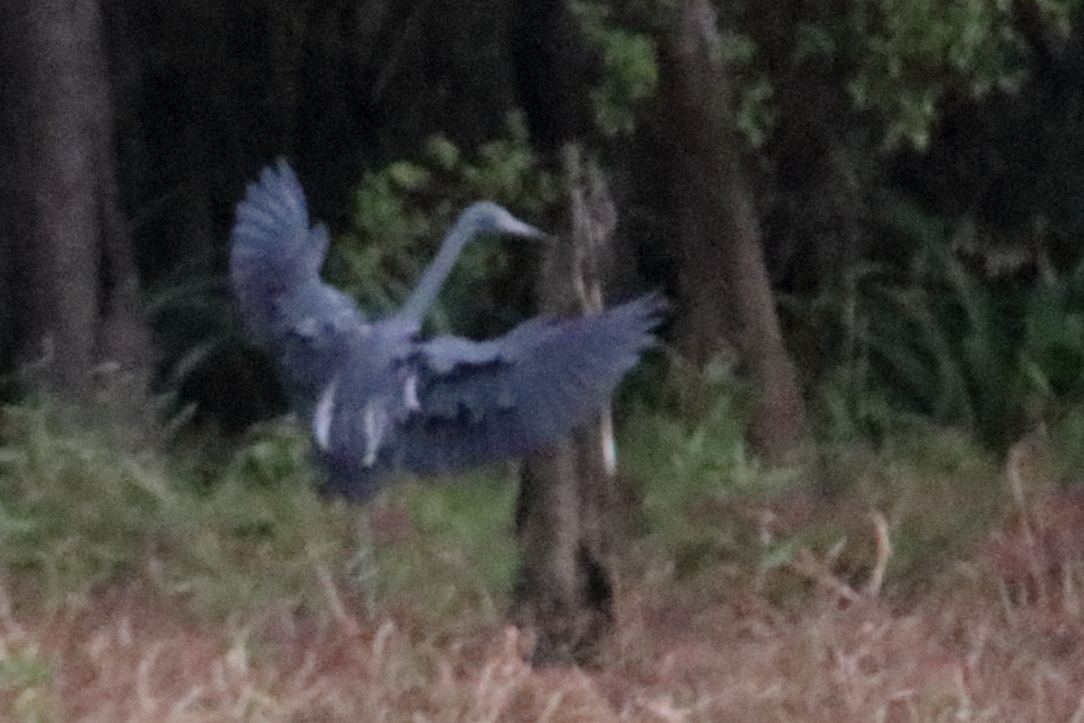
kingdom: Animalia
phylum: Chordata
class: Aves
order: Pelecaniformes
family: Ardeidae
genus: Egretta
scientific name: Egretta caerulea
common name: Little blue heron
